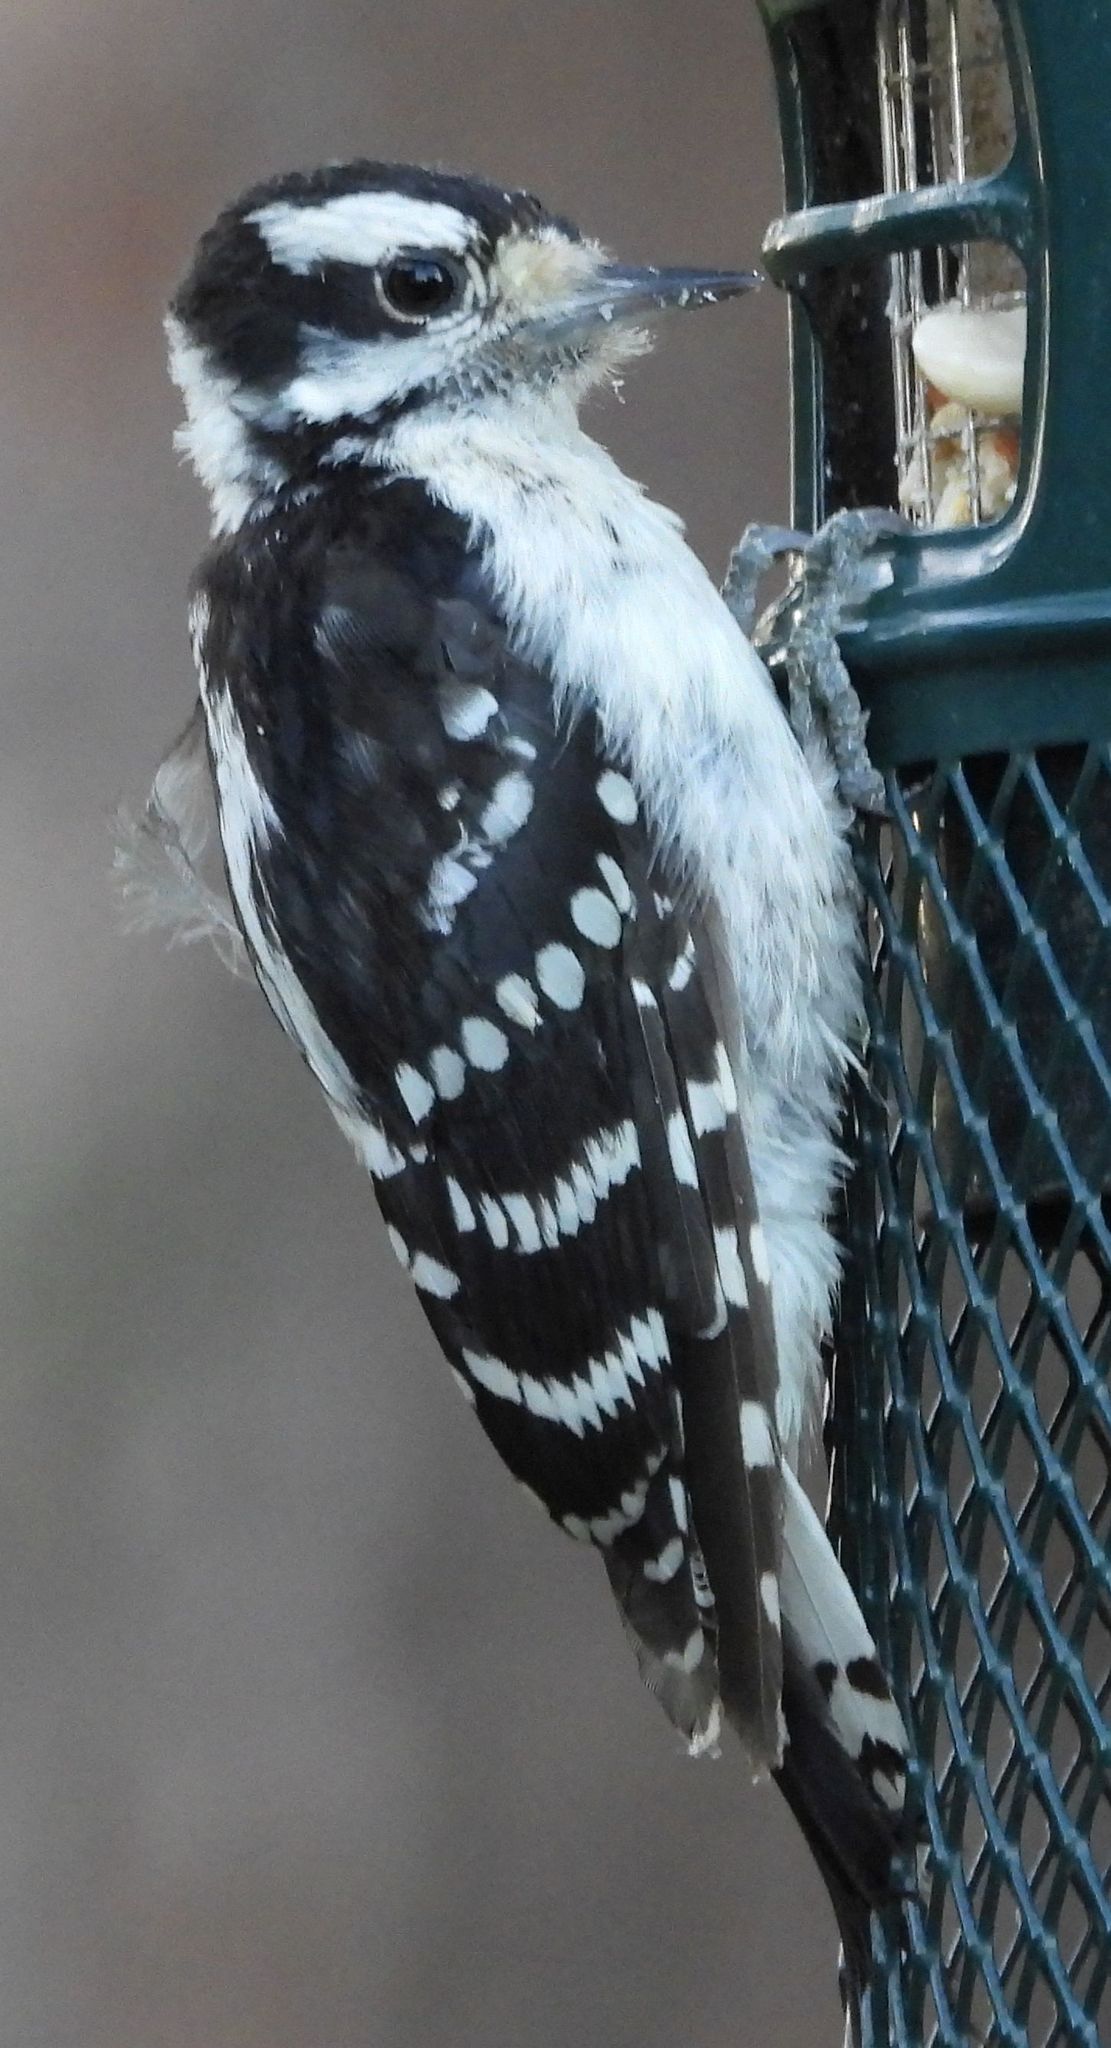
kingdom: Animalia
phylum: Chordata
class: Aves
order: Piciformes
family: Picidae
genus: Dryobates
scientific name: Dryobates pubescens
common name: Downy woodpecker
